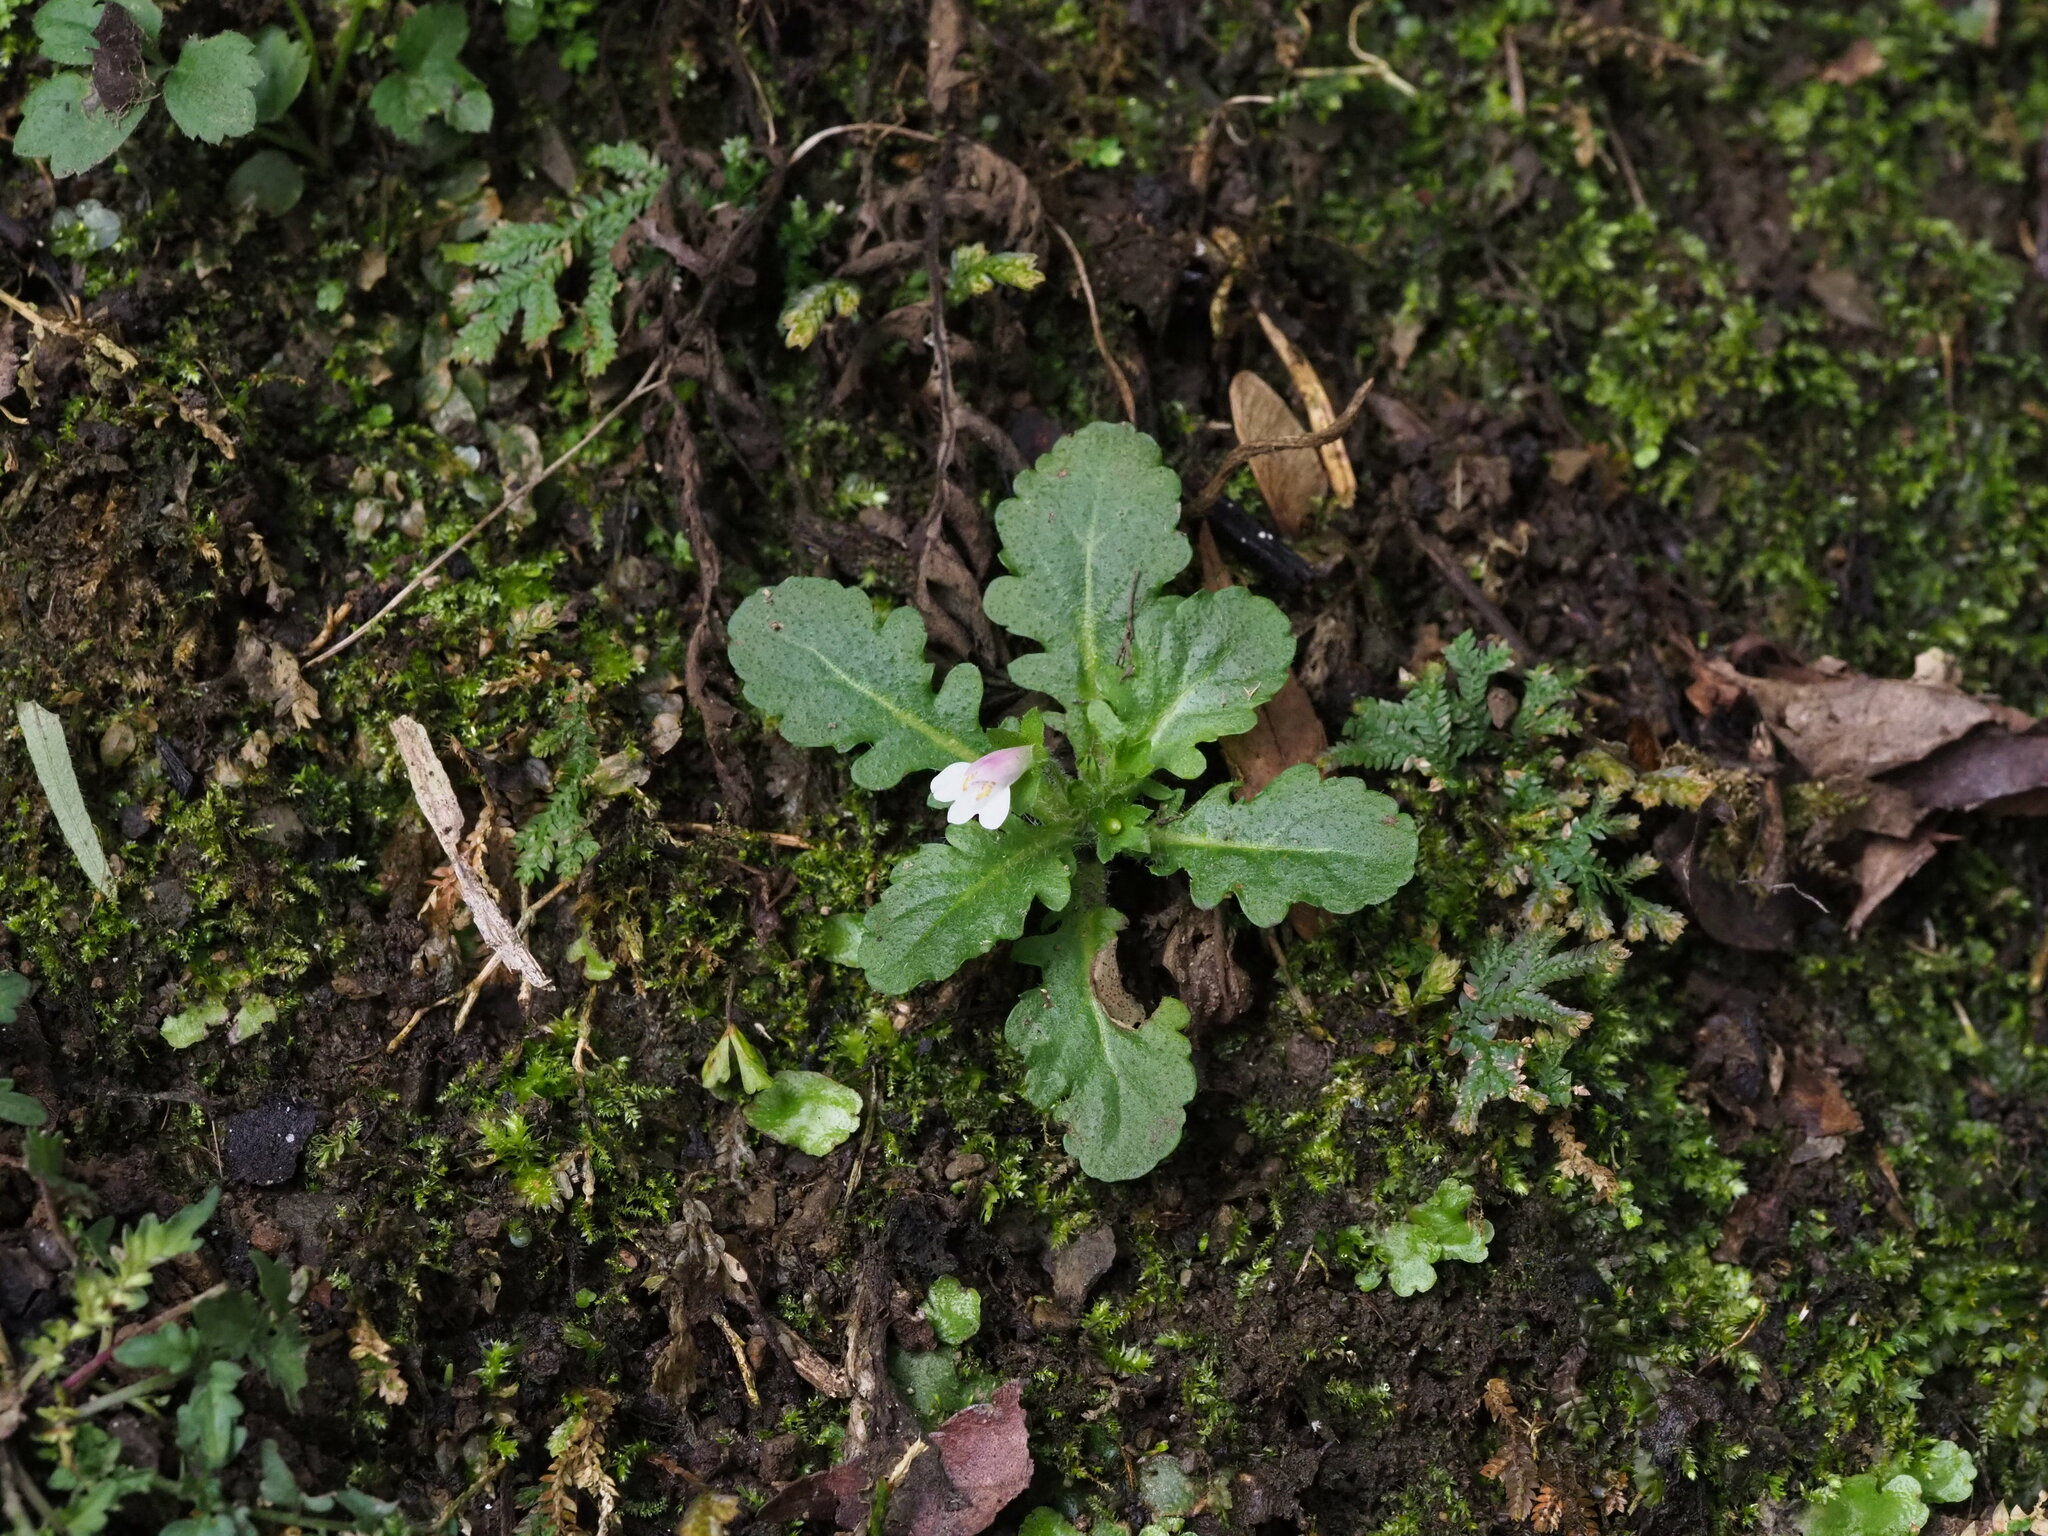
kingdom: Plantae
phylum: Tracheophyta
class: Magnoliopsida
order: Lamiales
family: Mazaceae
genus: Mazus
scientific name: Mazus goodeniifolius
